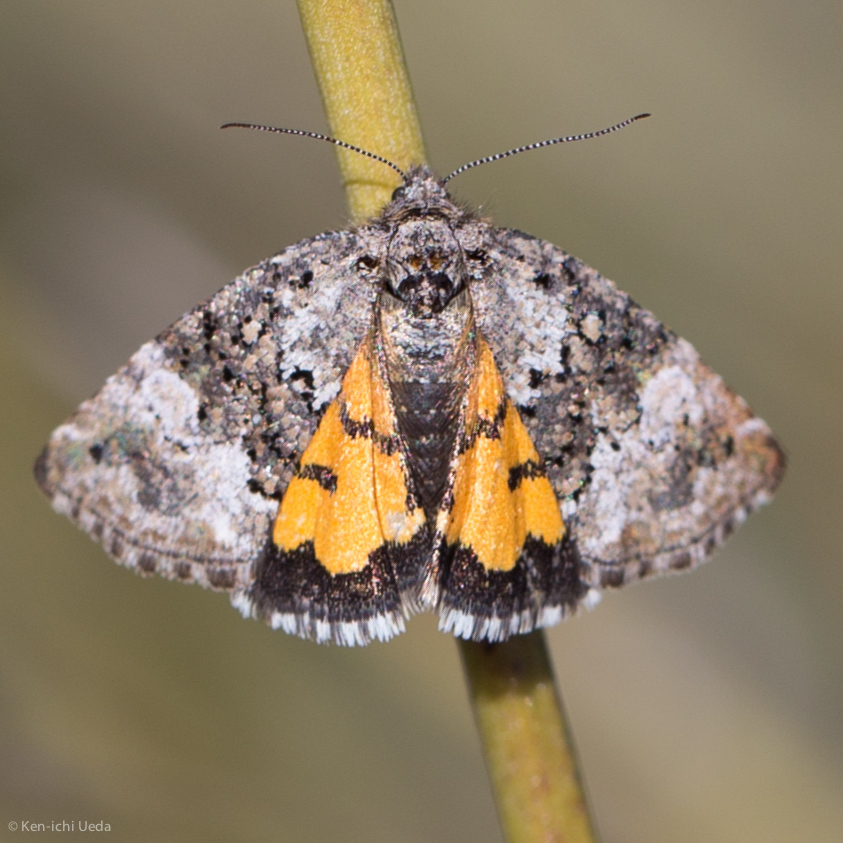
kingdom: Animalia
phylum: Arthropoda
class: Insecta
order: Lepidoptera
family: Noctuidae
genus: Annaphila
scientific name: Annaphila decia
